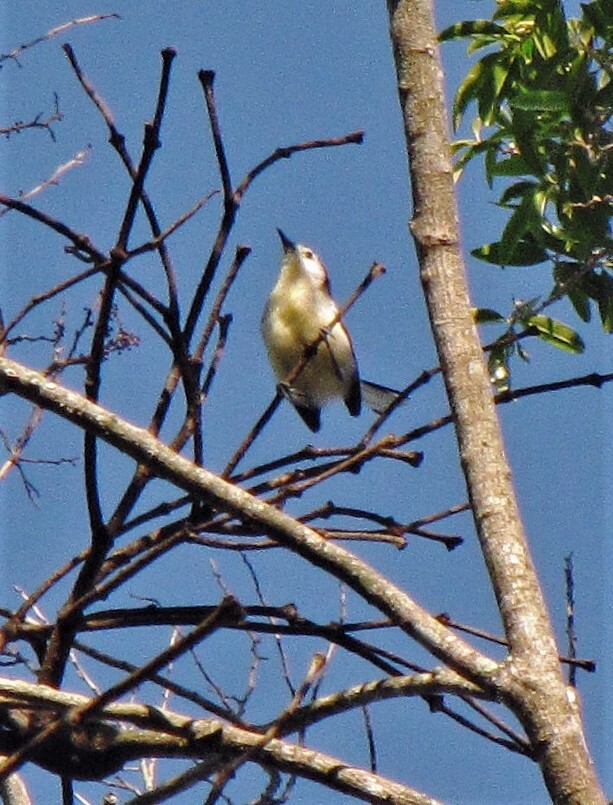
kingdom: Animalia
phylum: Chordata
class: Aves
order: Passeriformes
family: Polioptilidae
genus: Polioptila
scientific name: Polioptila lactea
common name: Creamy-bellied gnatcatcher
